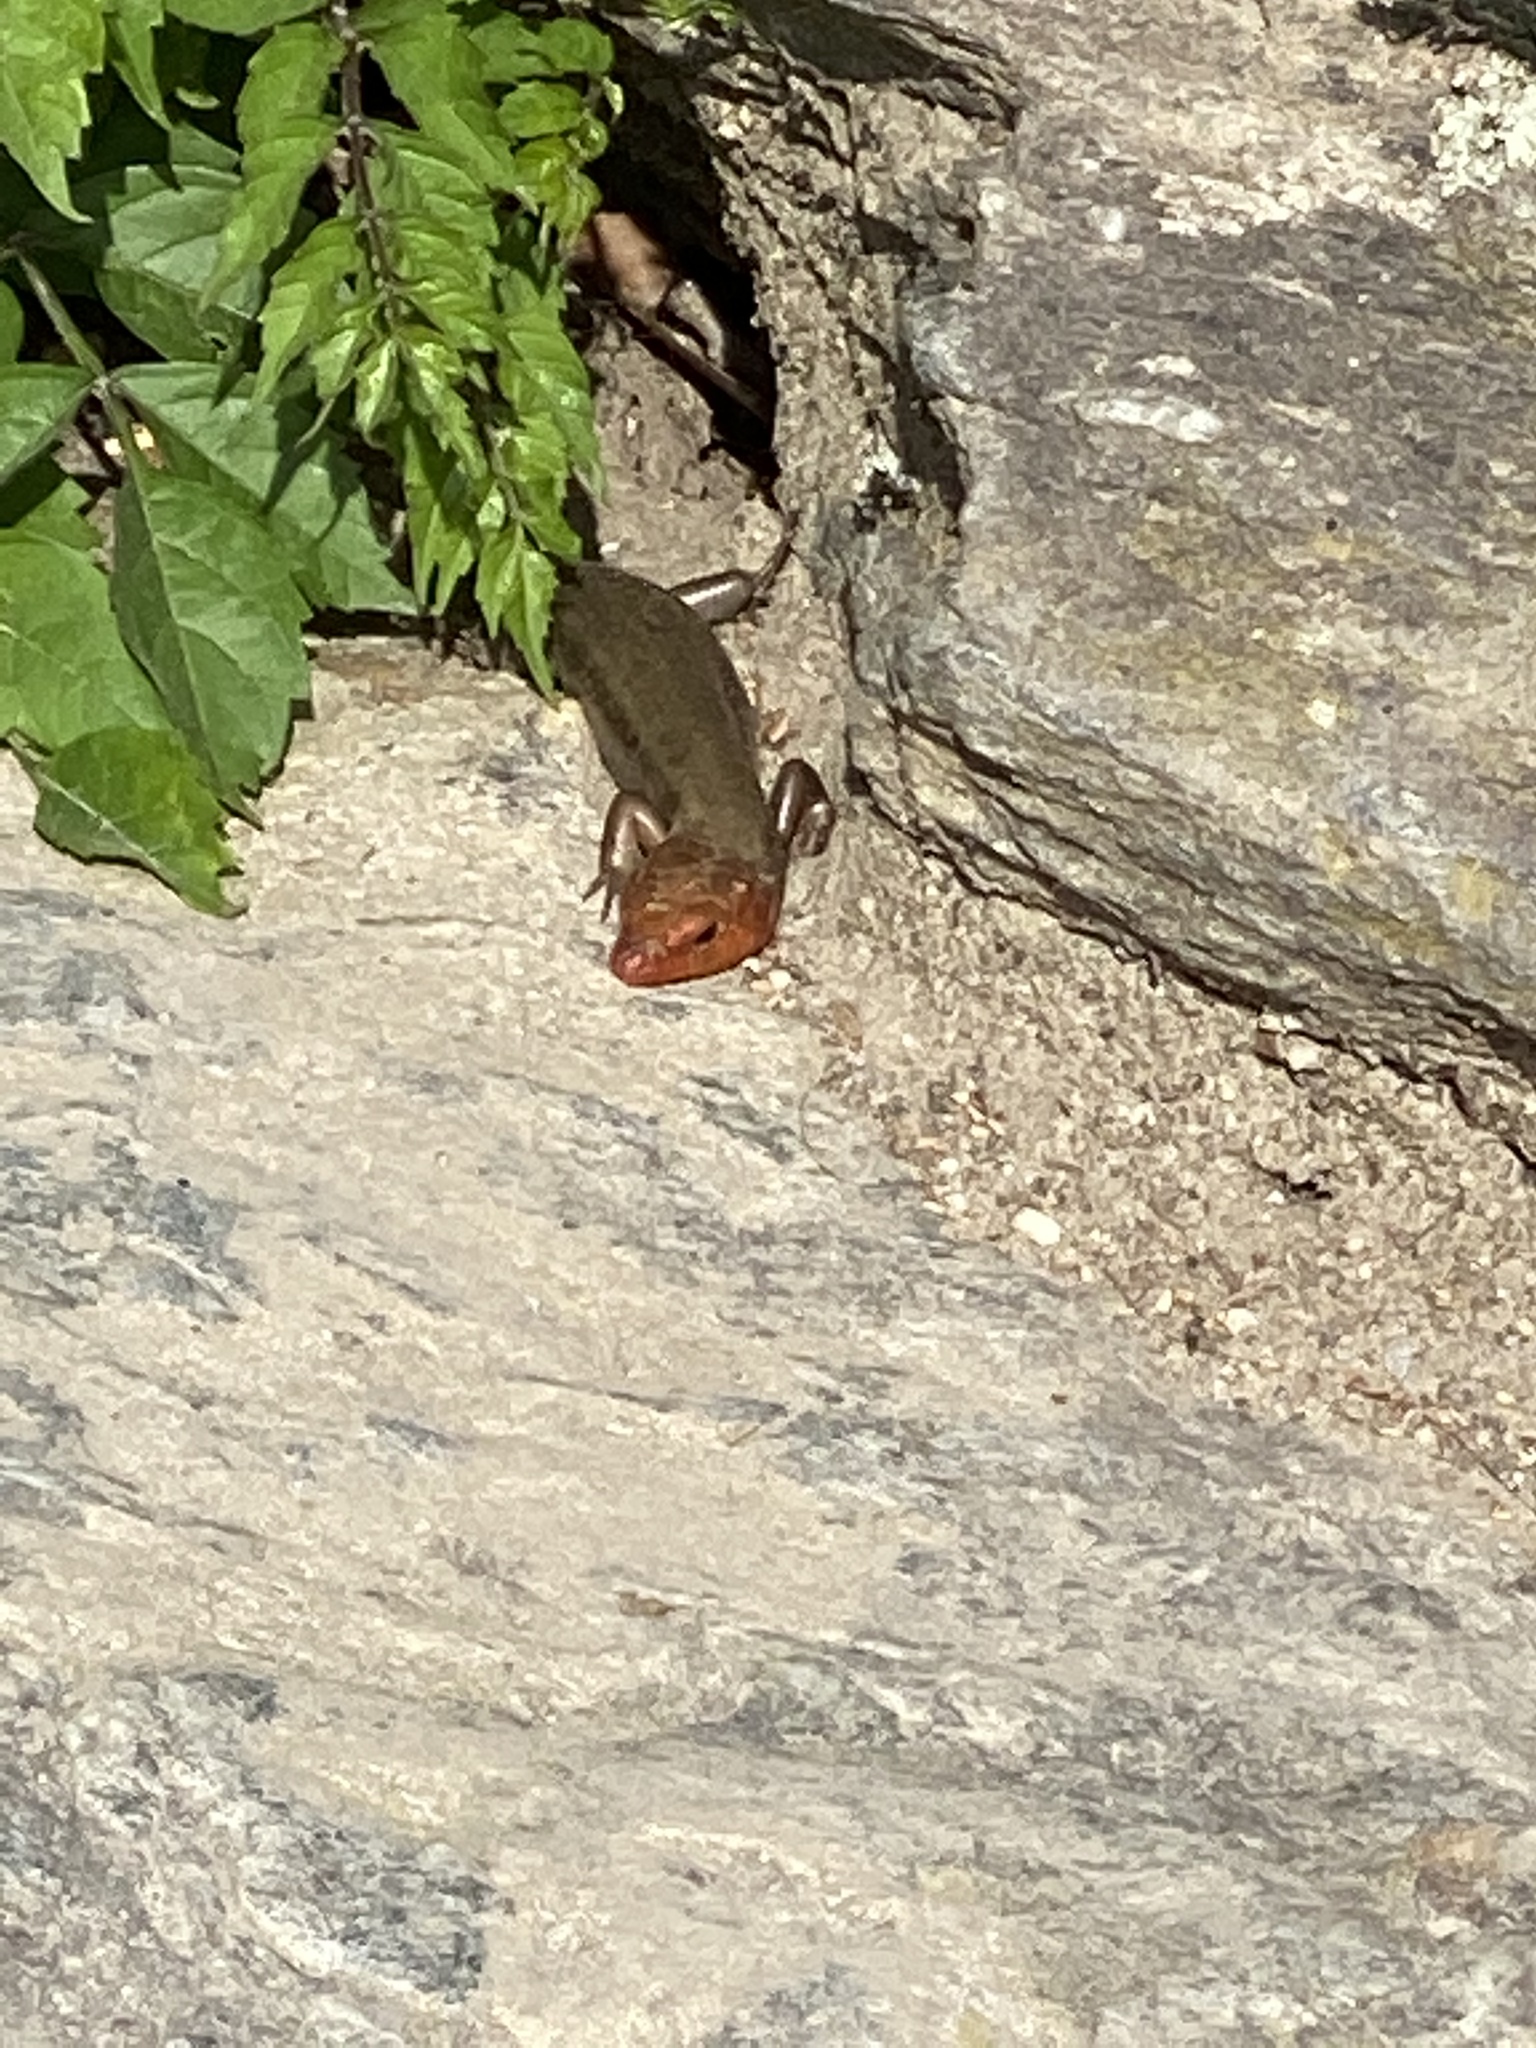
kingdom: Animalia
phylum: Chordata
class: Squamata
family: Scincidae
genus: Plestiodon
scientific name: Plestiodon fasciatus
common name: Five-lined skink
